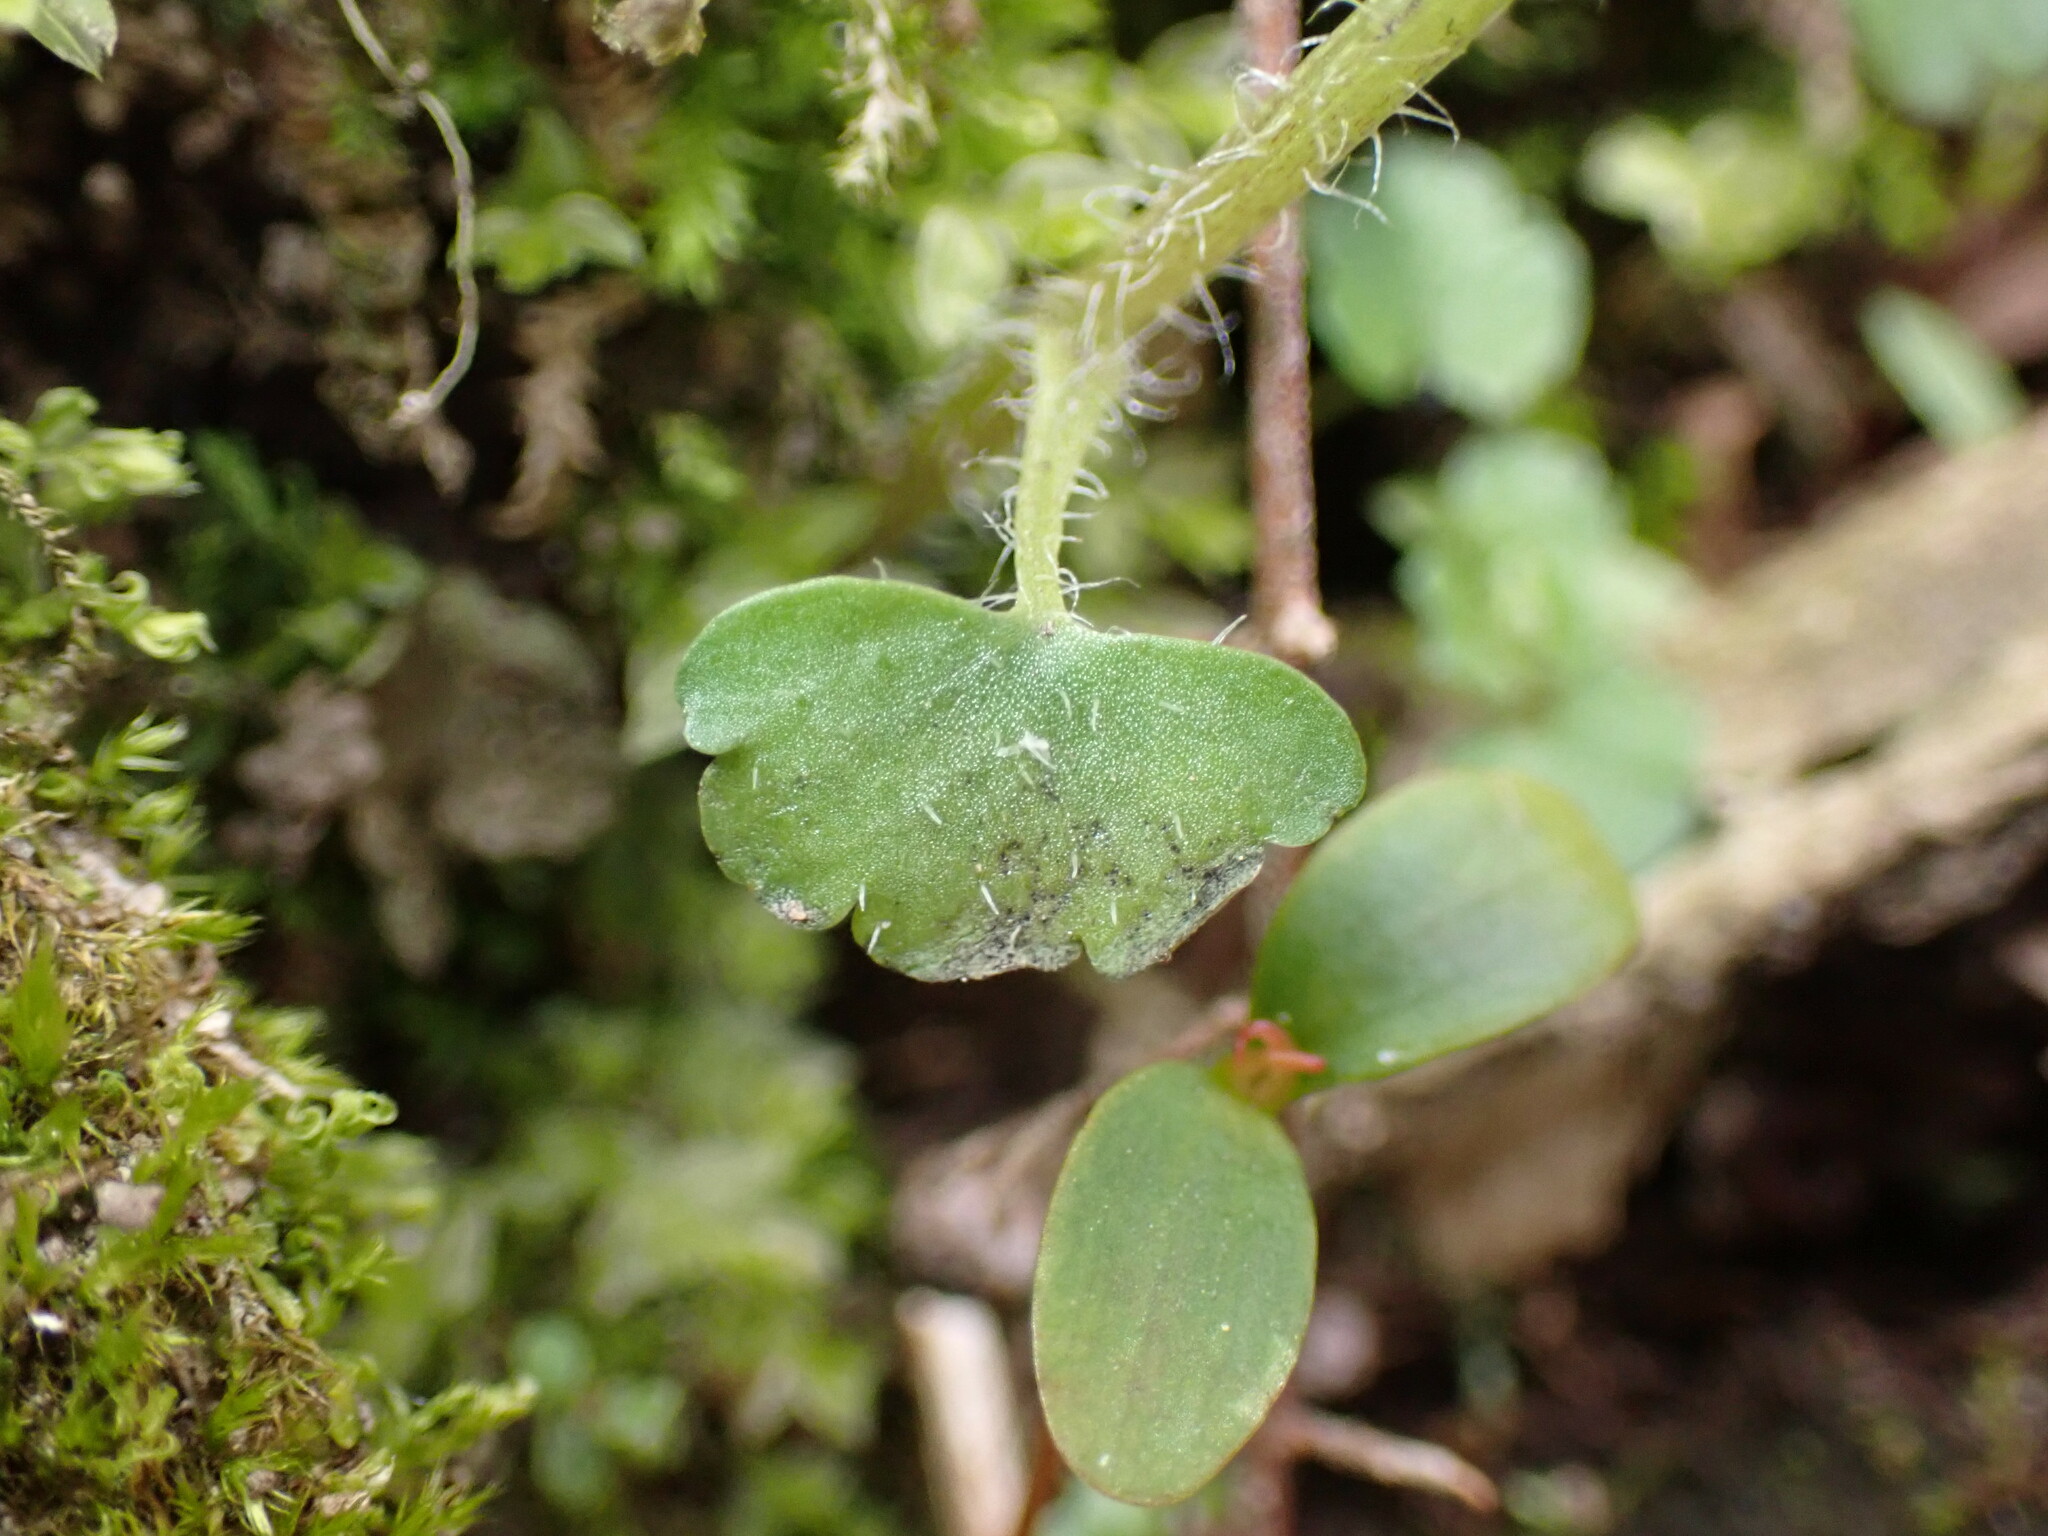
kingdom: Plantae
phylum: Tracheophyta
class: Magnoliopsida
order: Saxifragales
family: Saxifragaceae
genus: Chrysosplenium
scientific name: Chrysosplenium japonicum
